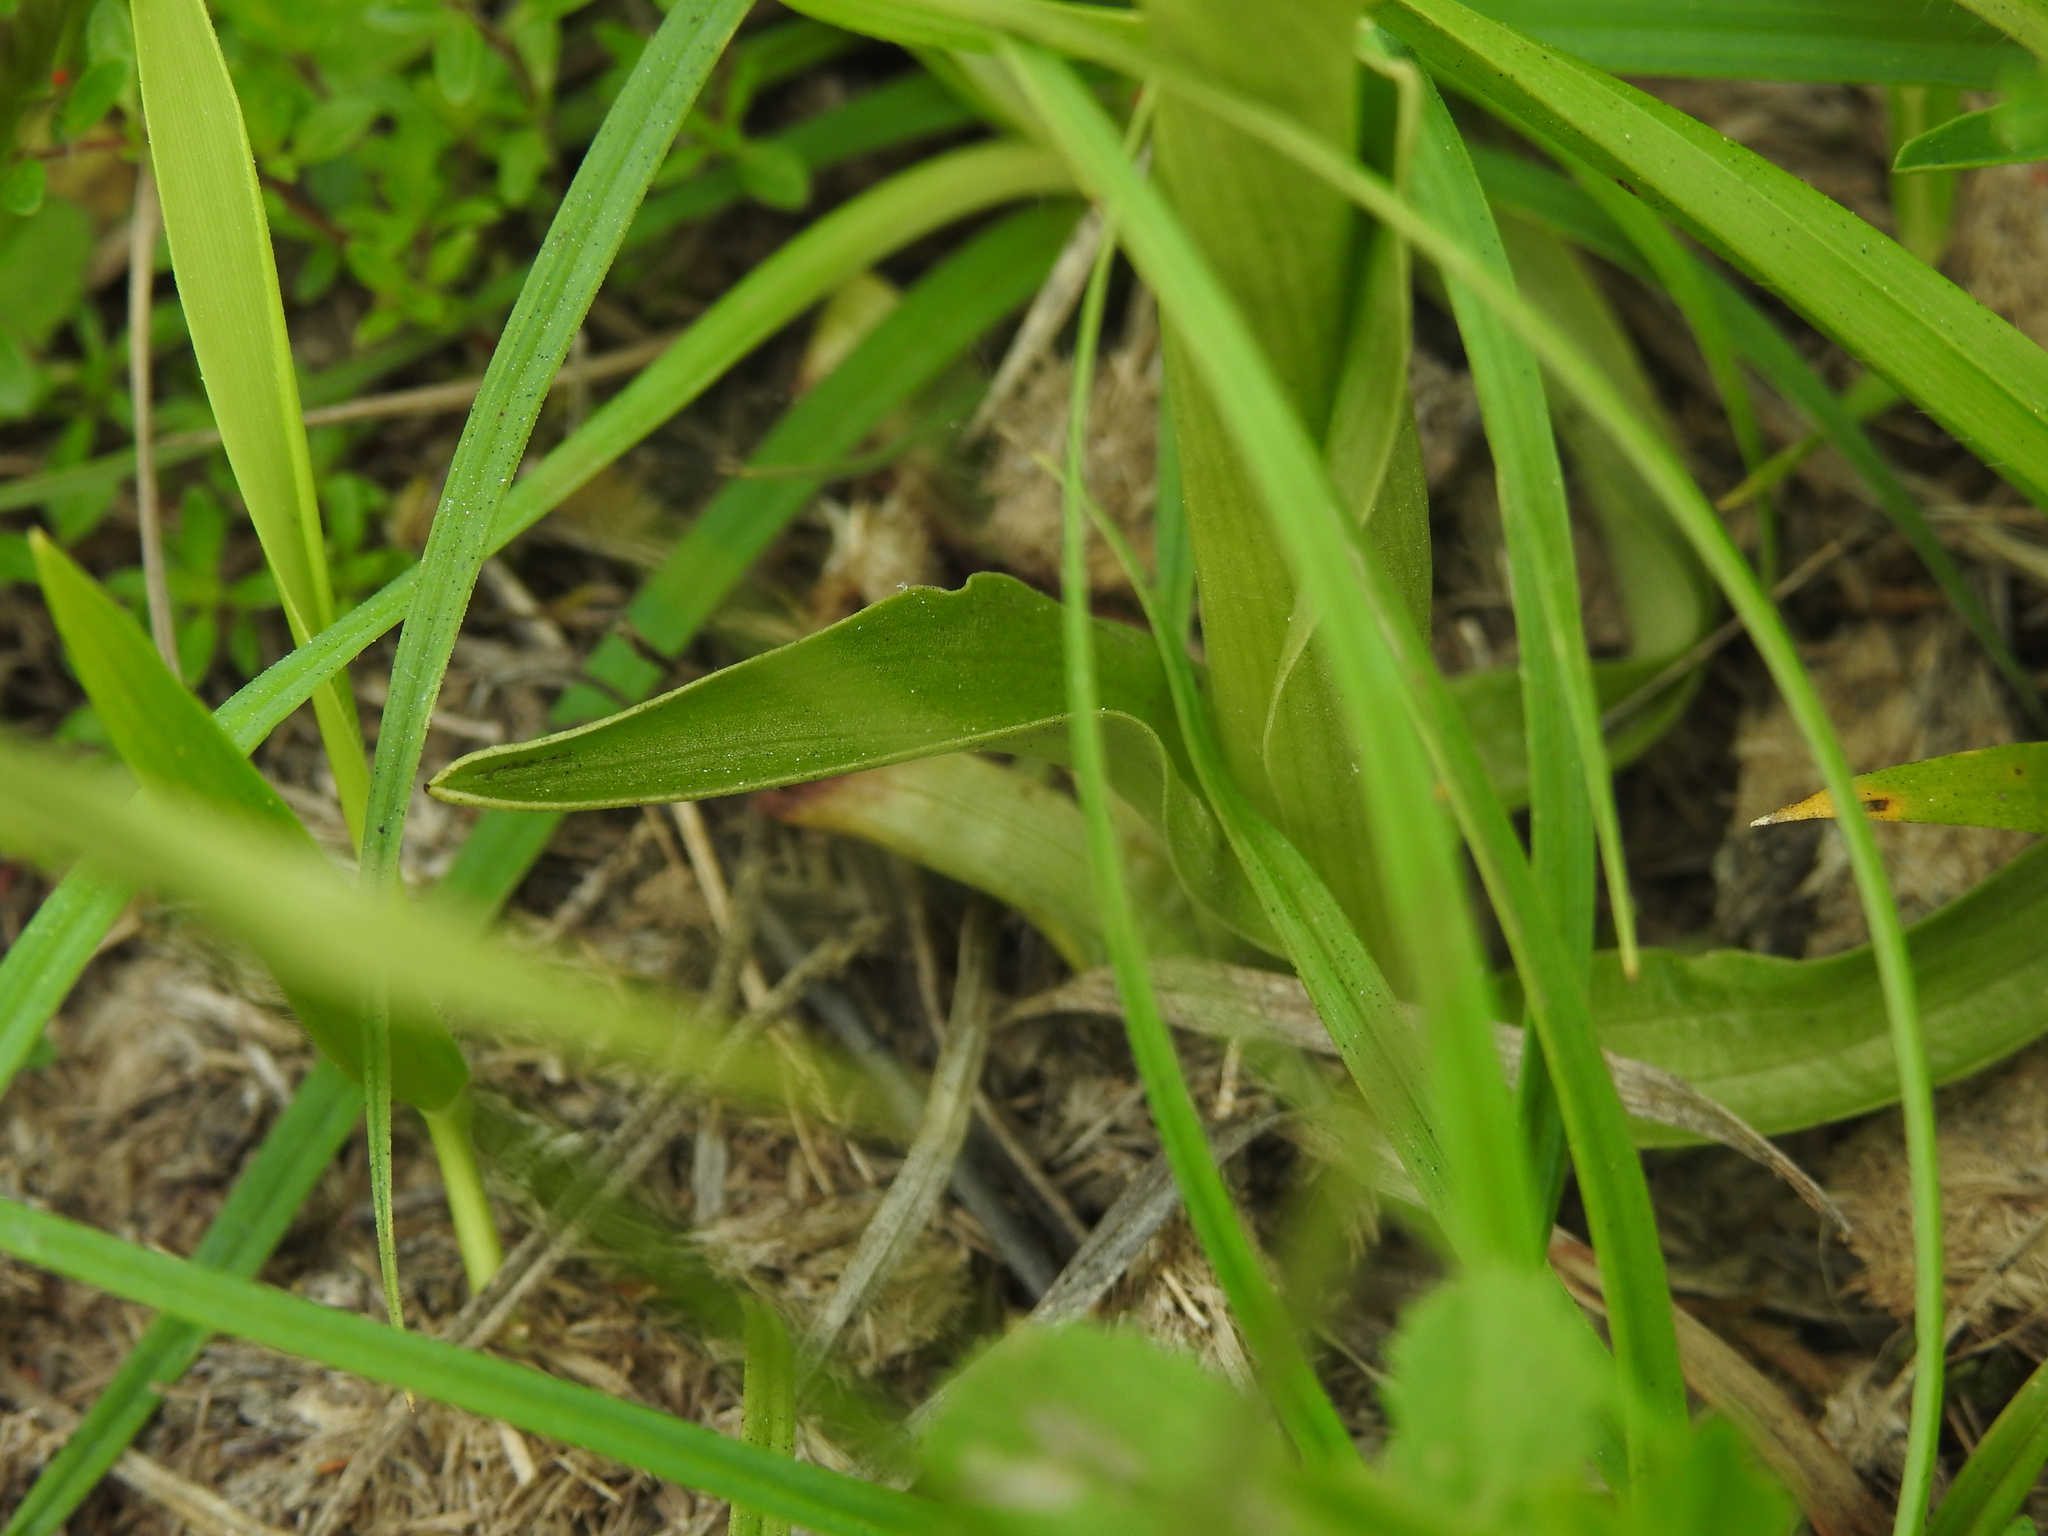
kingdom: Plantae
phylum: Tracheophyta
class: Liliopsida
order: Asparagales
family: Orchidaceae
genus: Anacamptis
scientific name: Anacamptis morio
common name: Green-winged orchid
